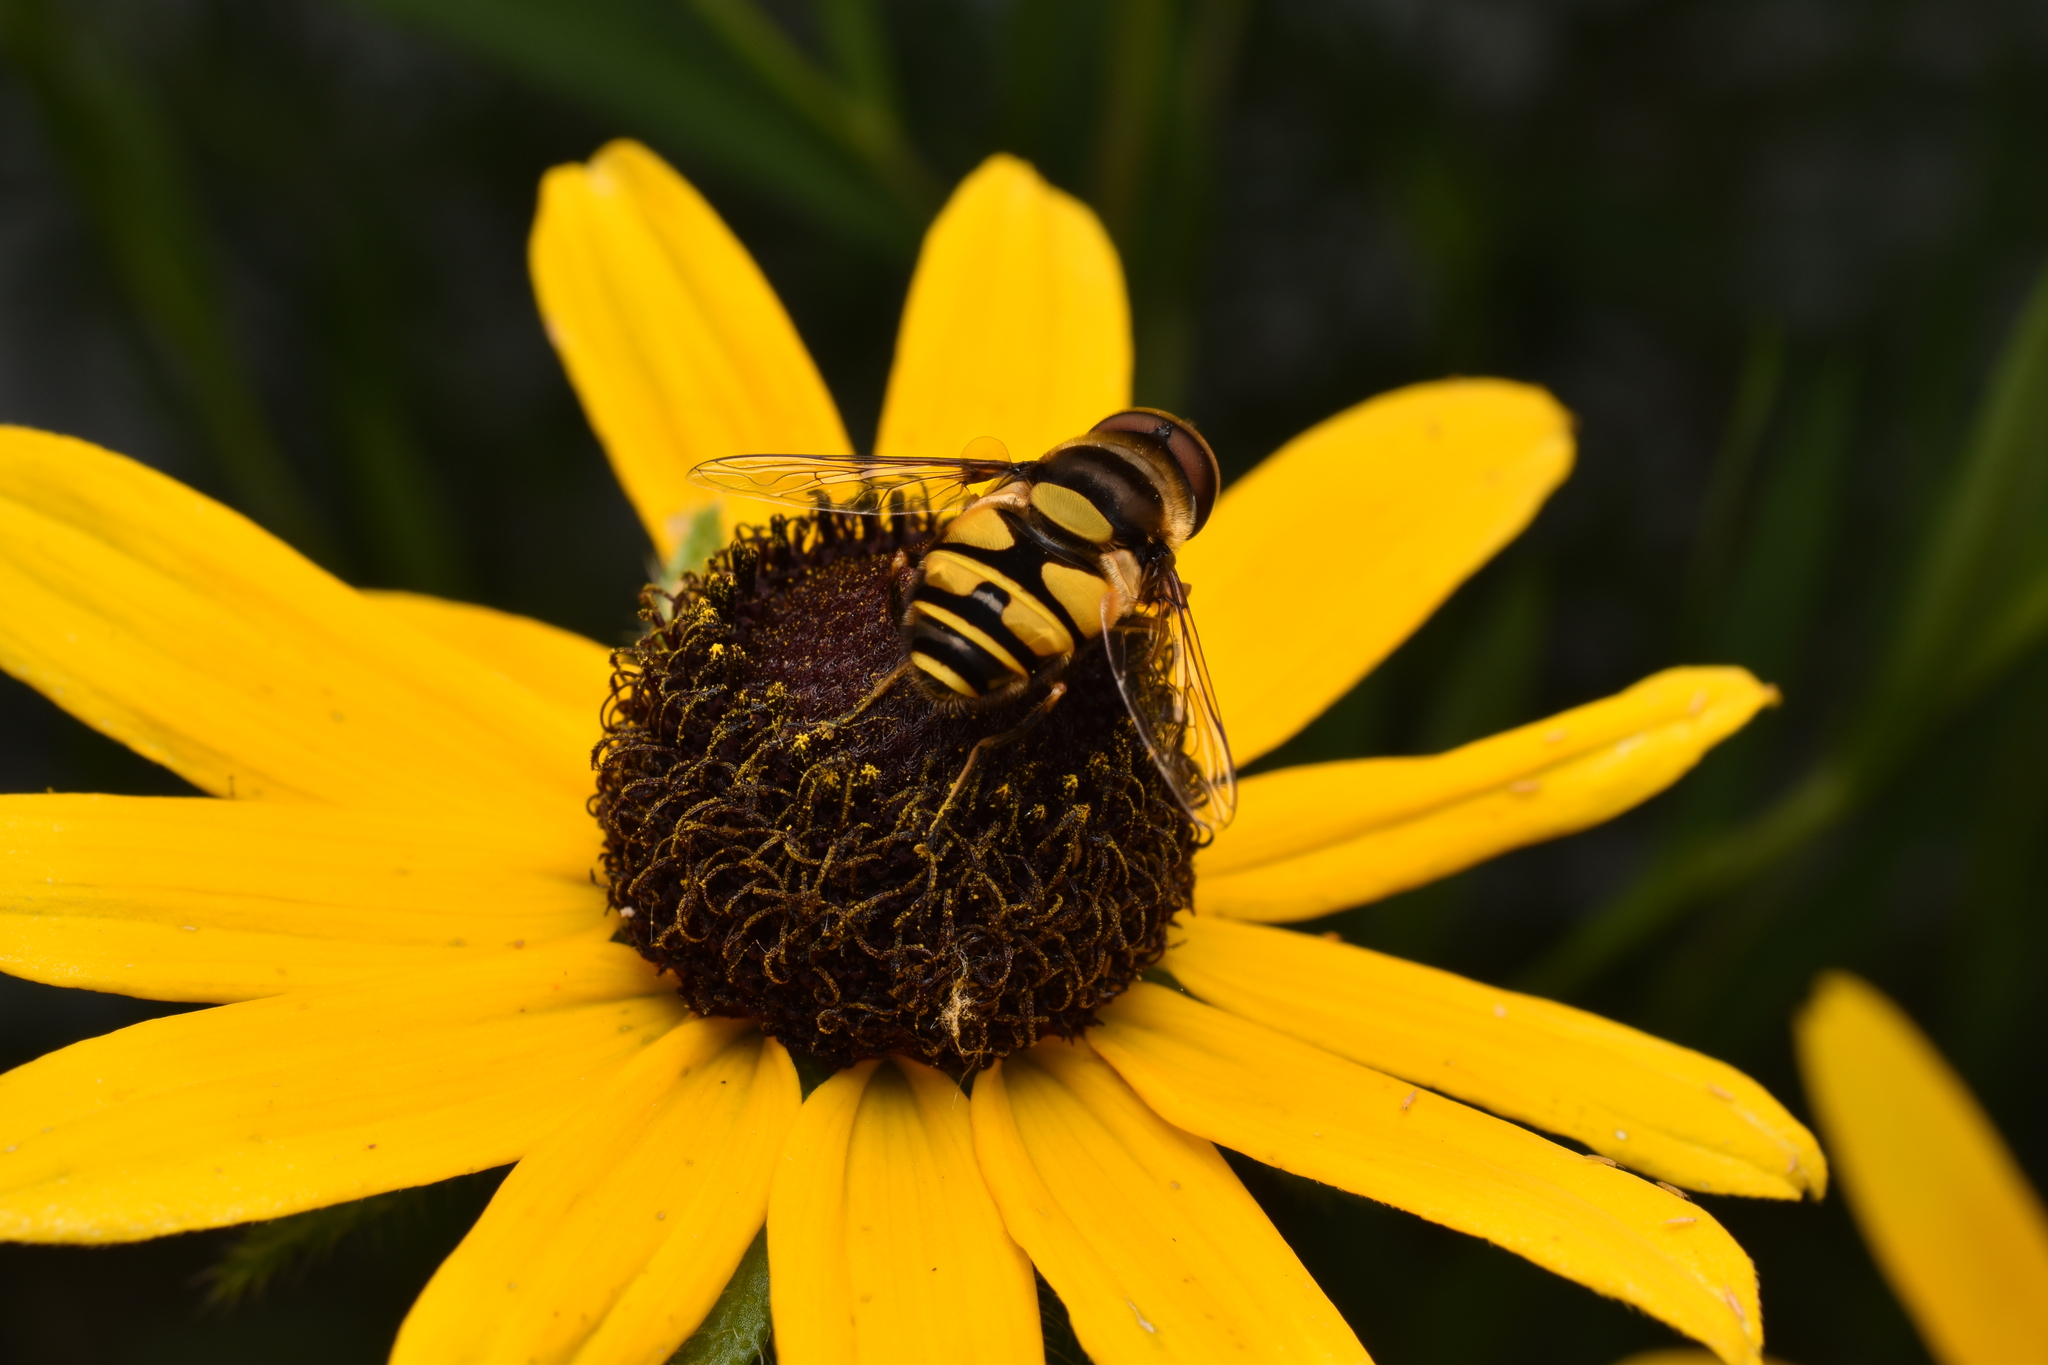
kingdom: Animalia
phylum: Arthropoda
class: Insecta
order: Diptera
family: Syrphidae
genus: Eristalis
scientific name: Eristalis transversa
